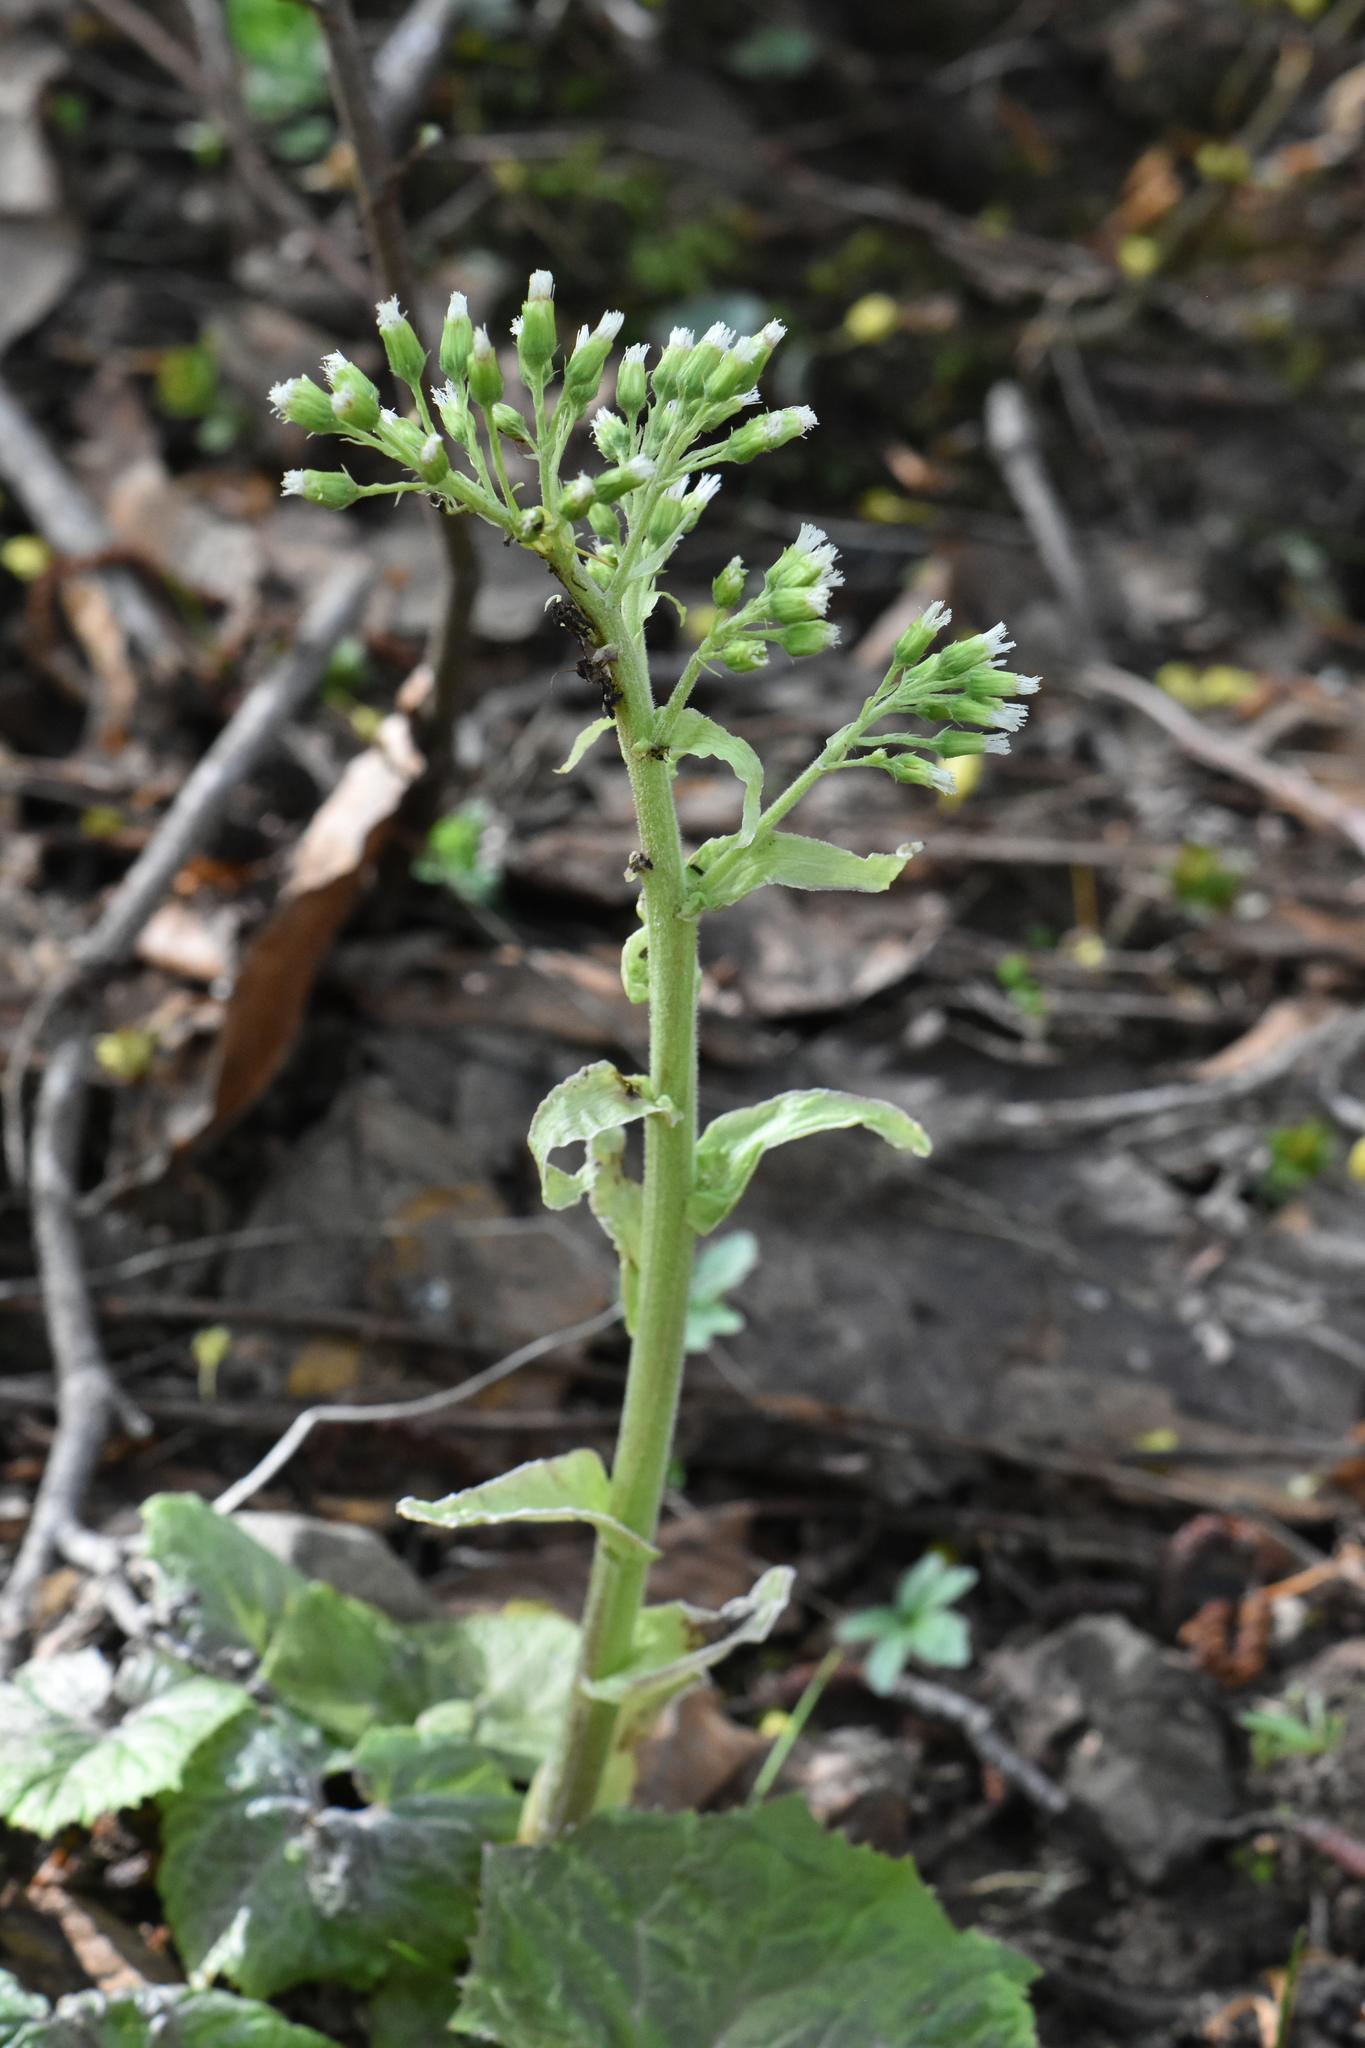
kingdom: Plantae
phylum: Tracheophyta
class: Magnoliopsida
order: Asterales
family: Asteraceae
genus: Petasites
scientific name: Petasites albus
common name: White butterbur
